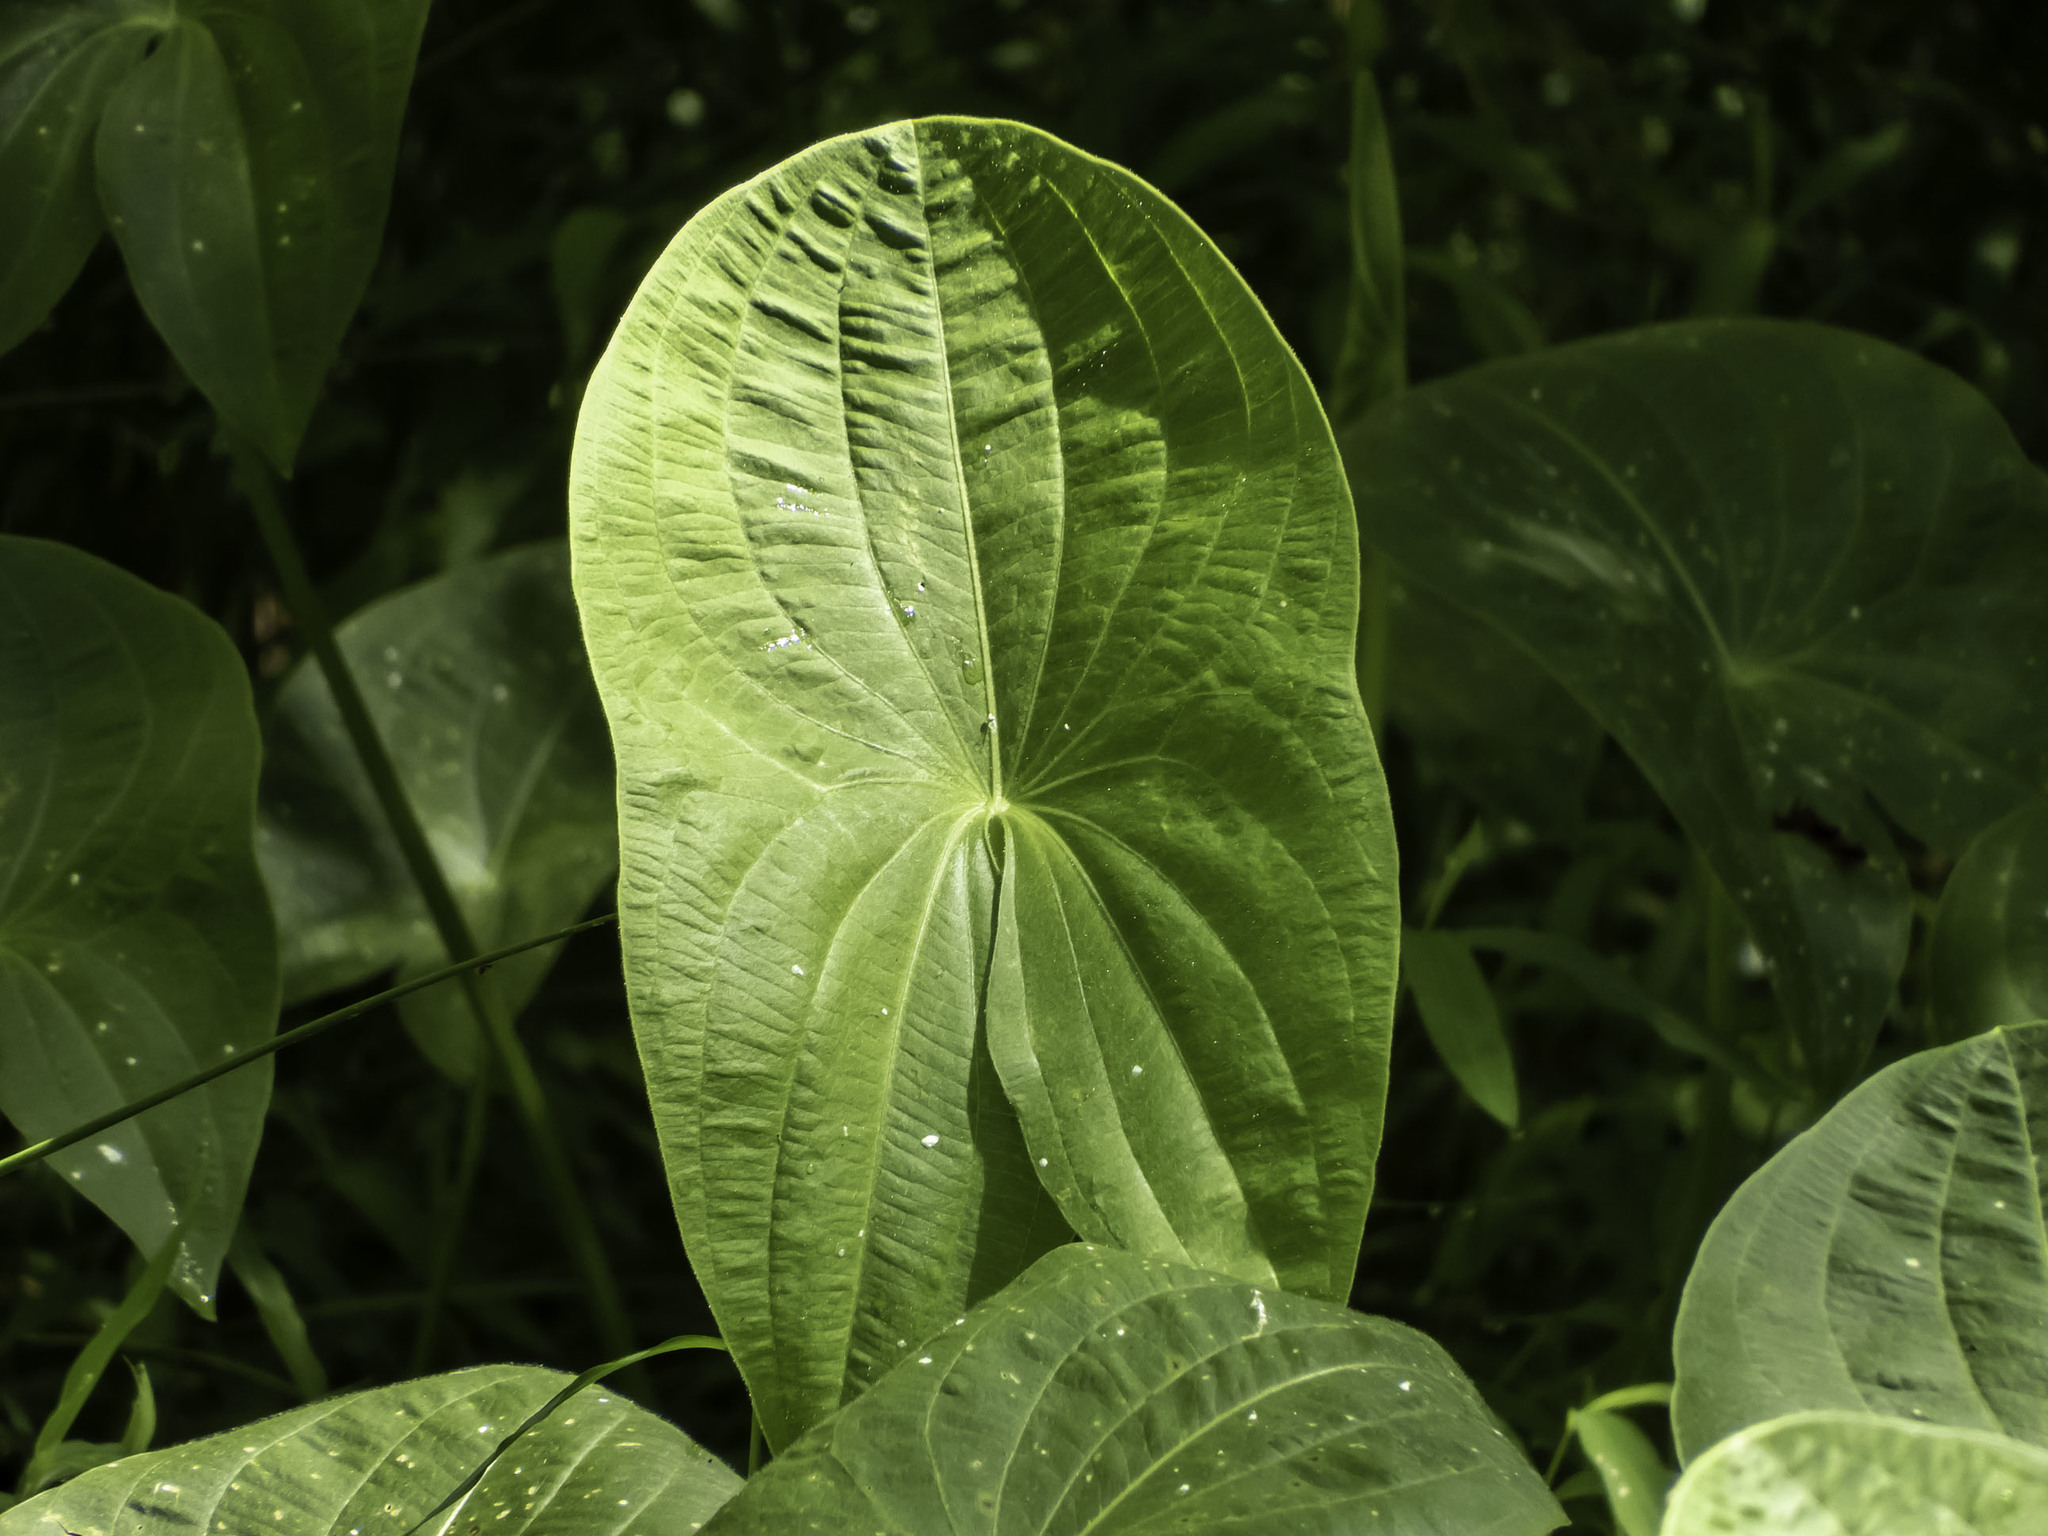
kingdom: Plantae
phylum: Tracheophyta
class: Liliopsida
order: Alismatales
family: Alismataceae
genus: Sagittaria
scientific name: Sagittaria latifolia
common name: Duck-potato
